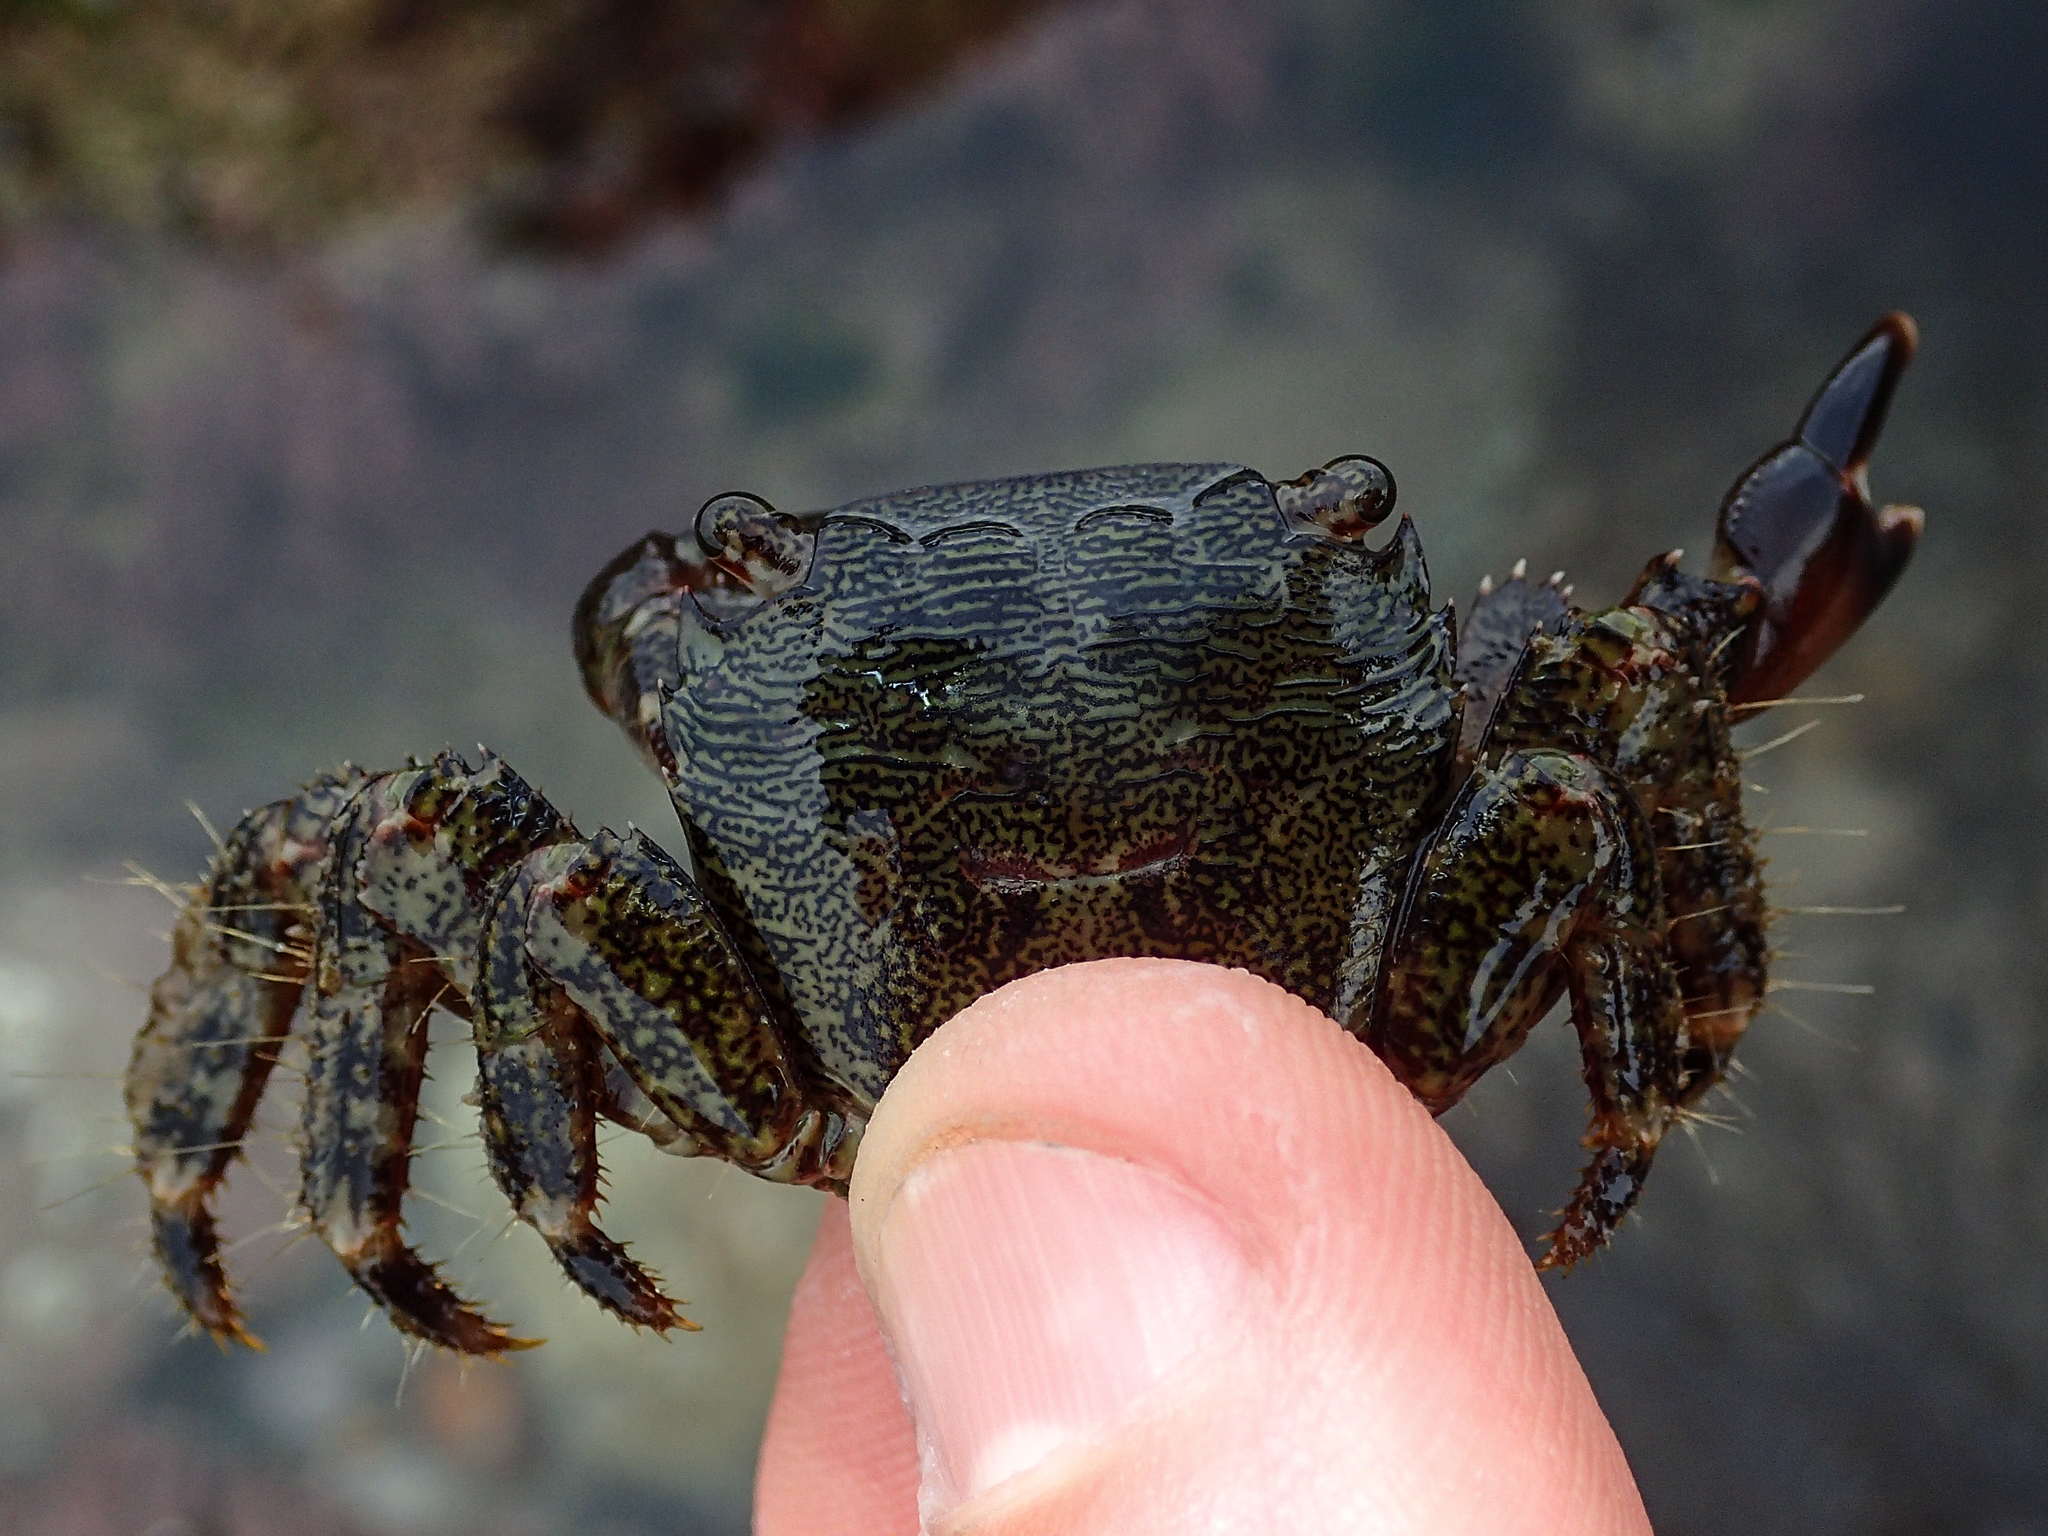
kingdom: Animalia
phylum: Arthropoda
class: Malacostraca
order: Decapoda
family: Grapsidae
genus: Pachygrapsus
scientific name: Pachygrapsus marmoratus
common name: Marbled rock crab
